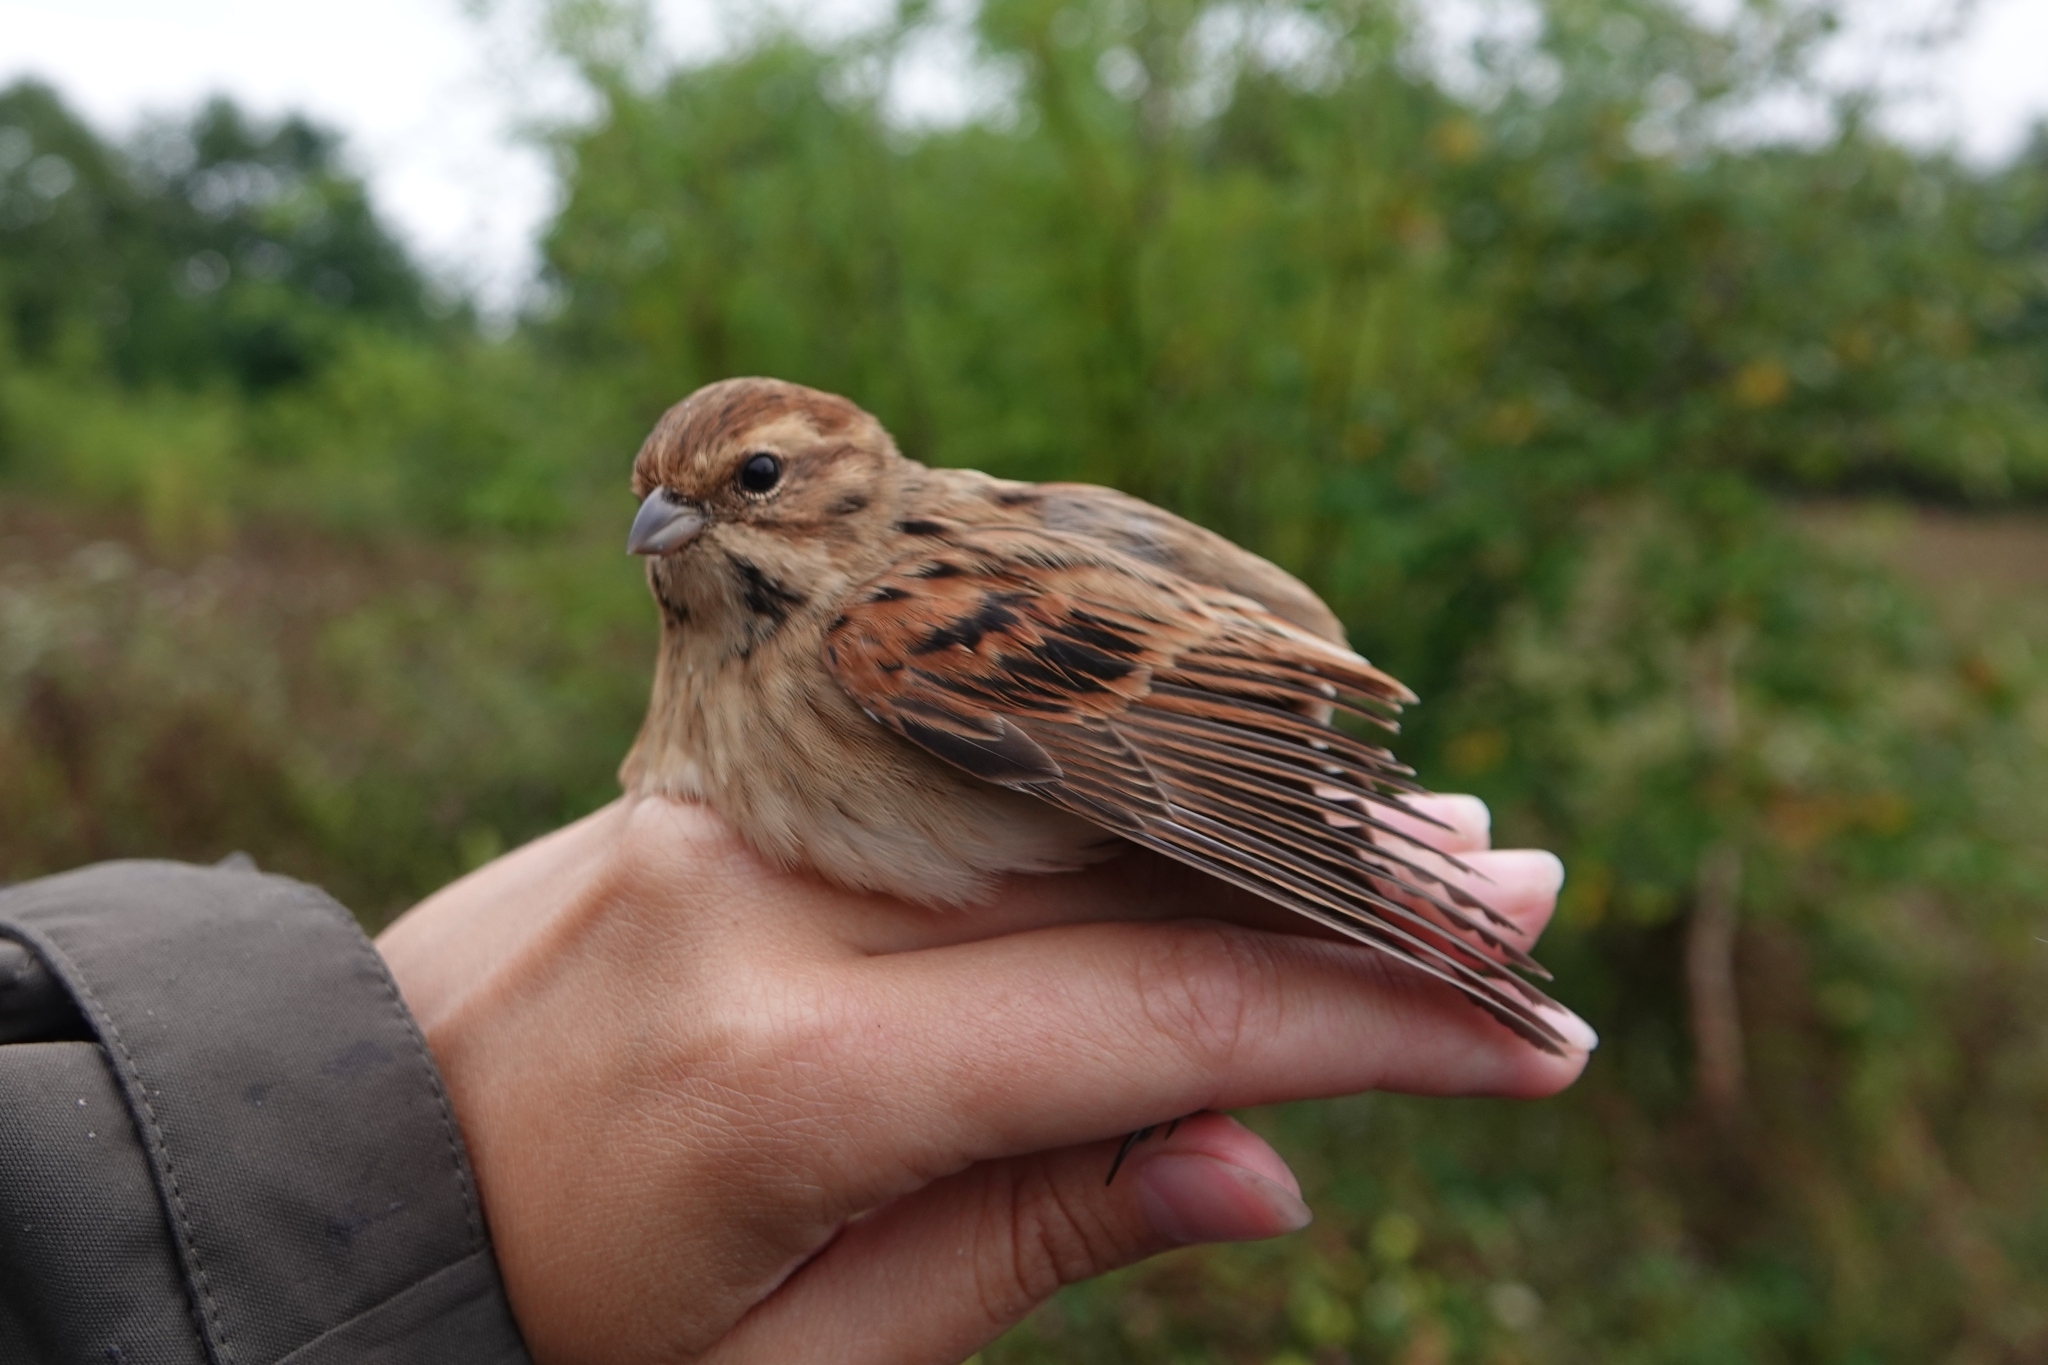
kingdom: Animalia
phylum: Chordata
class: Aves
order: Passeriformes
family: Emberizidae
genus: Emberiza
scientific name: Emberiza schoeniclus
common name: Reed bunting
